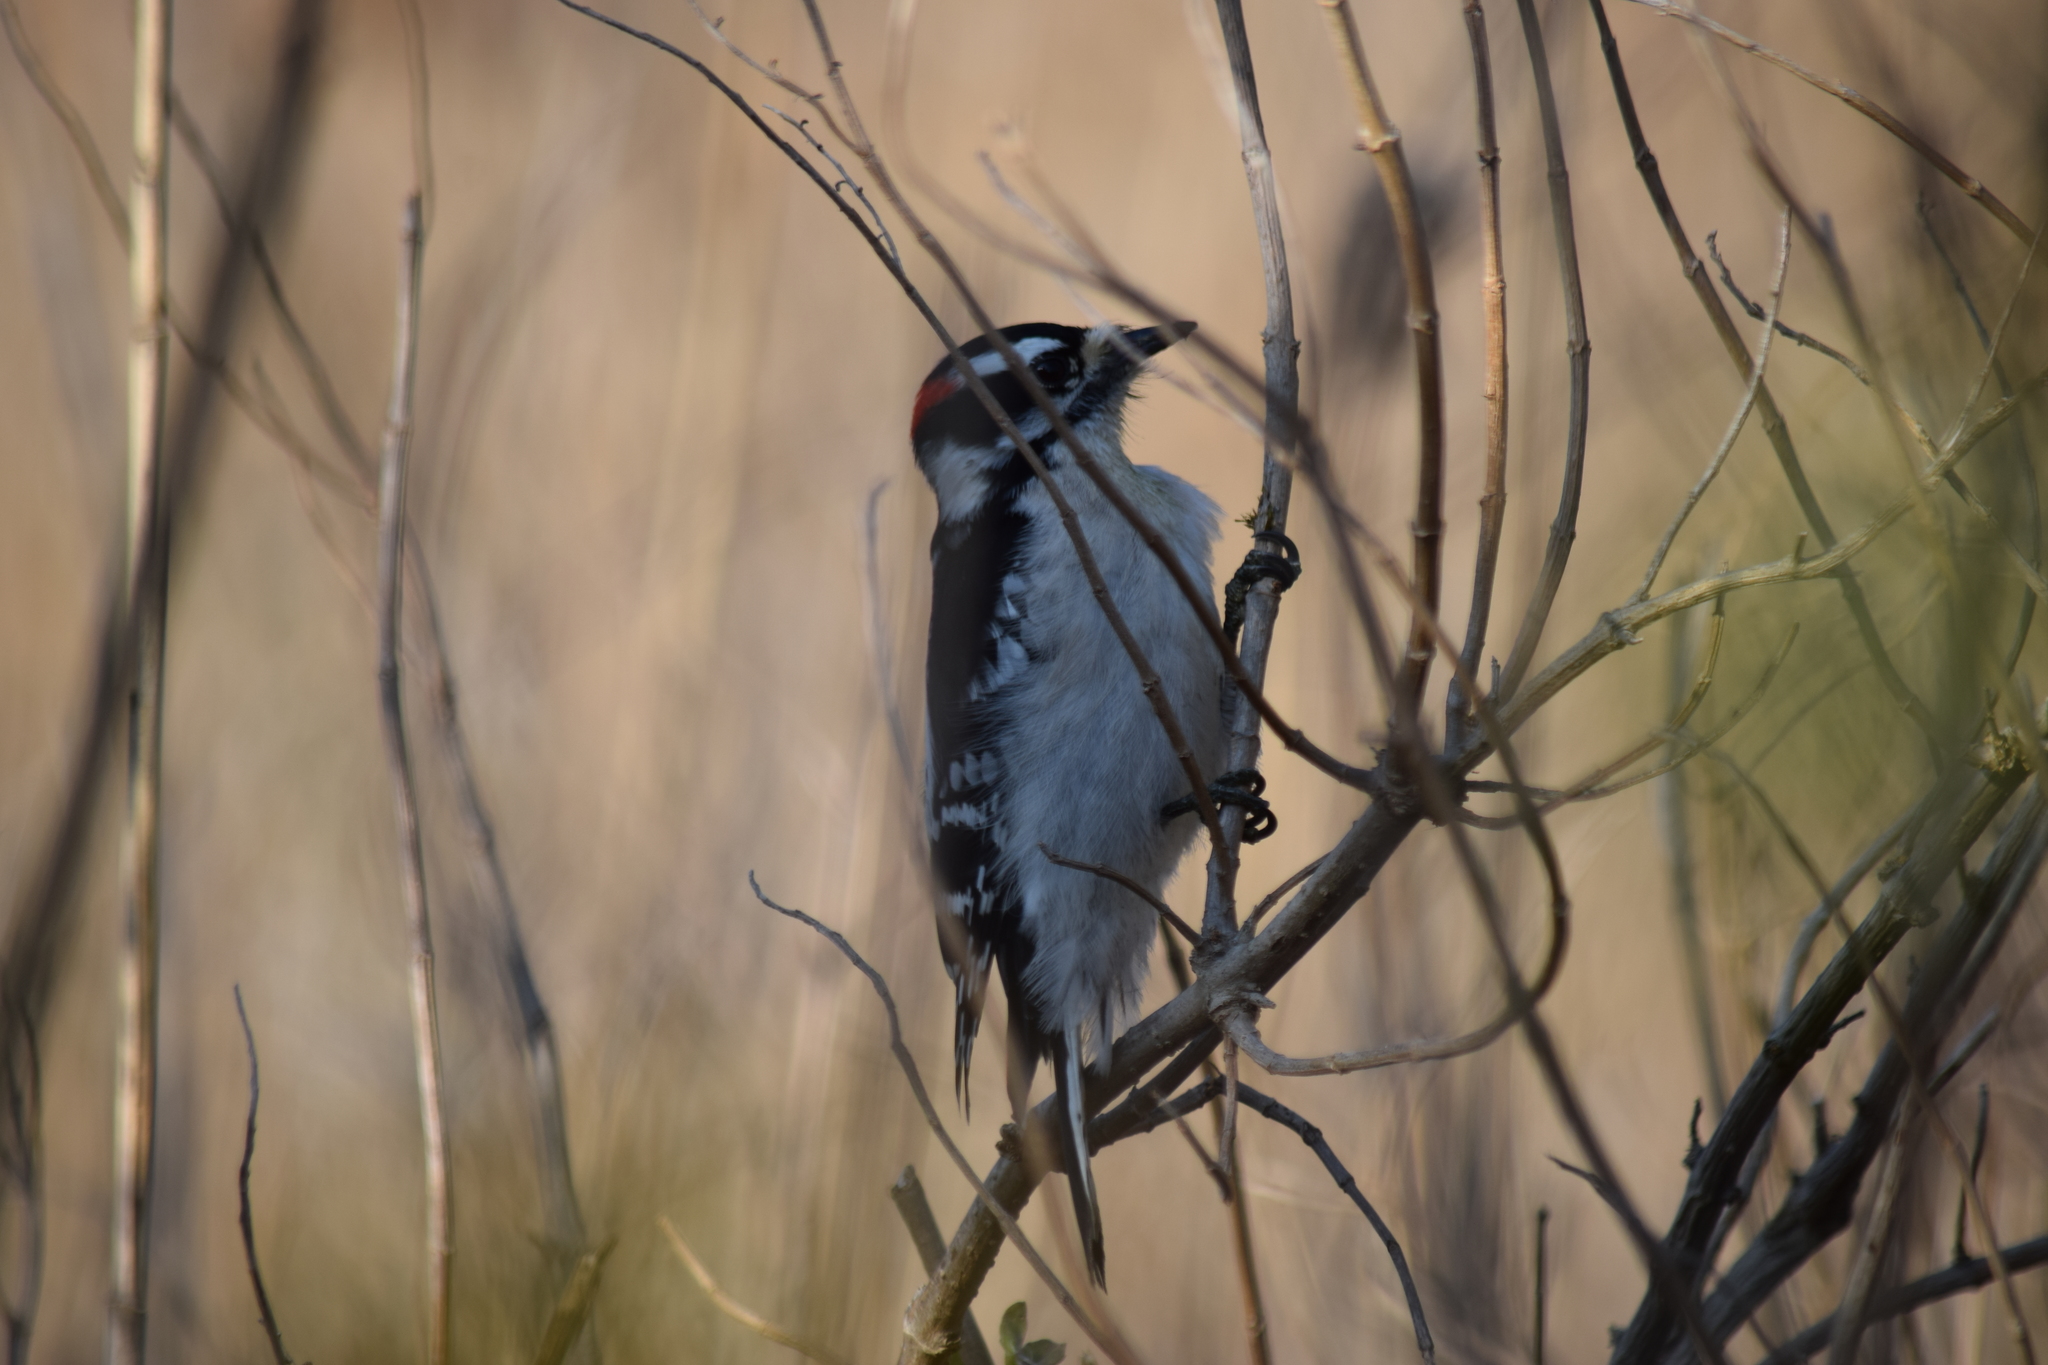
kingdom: Animalia
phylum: Chordata
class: Aves
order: Piciformes
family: Picidae
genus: Dryobates
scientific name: Dryobates pubescens
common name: Downy woodpecker
